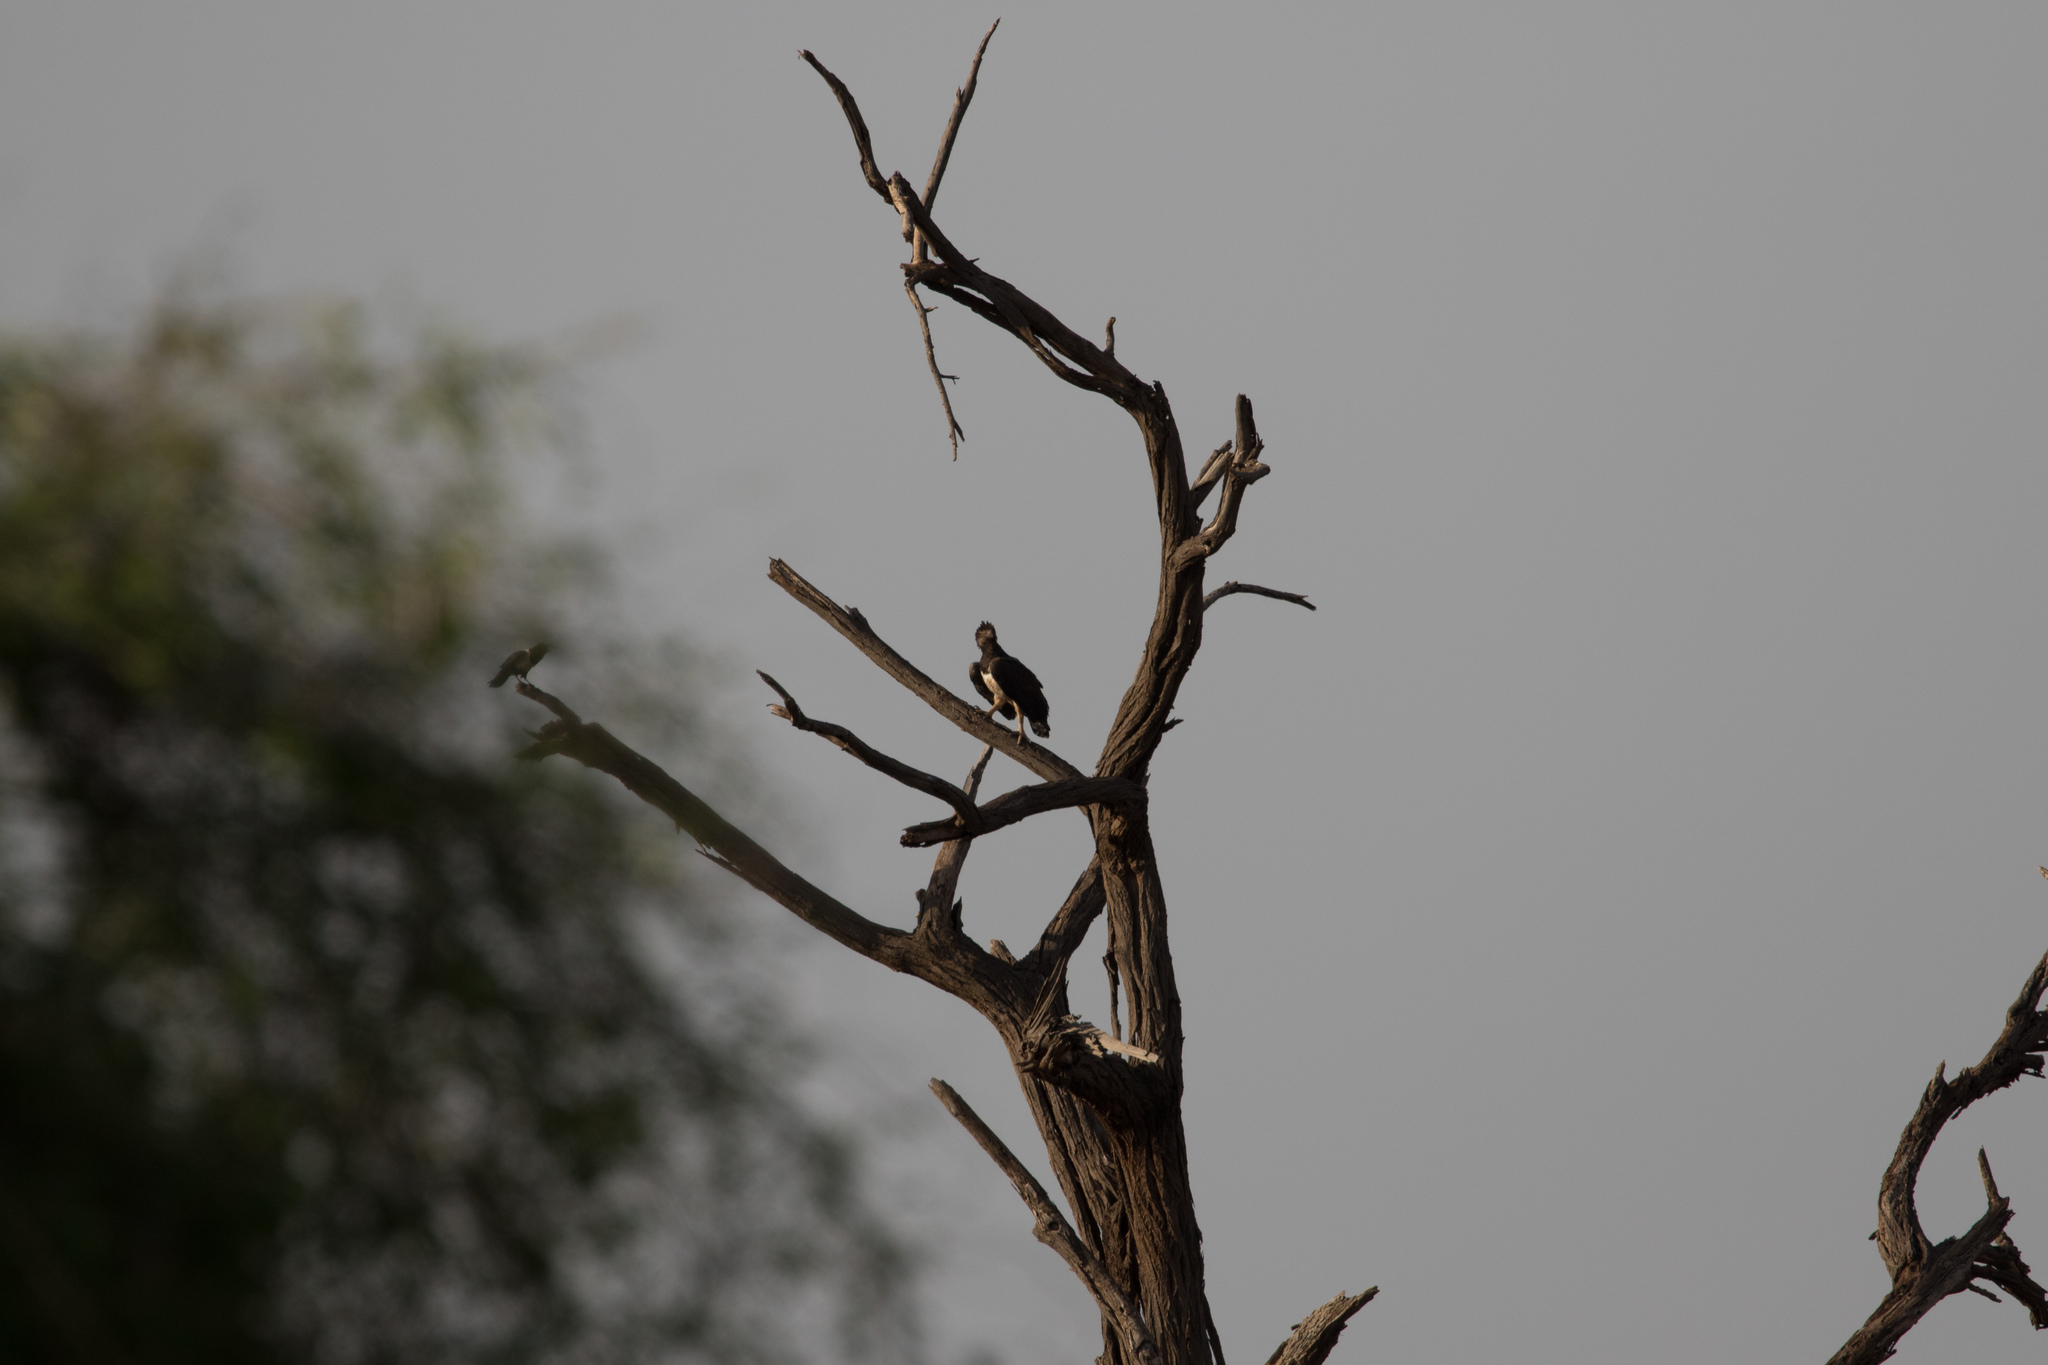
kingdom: Animalia
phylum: Chordata
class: Aves
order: Accipitriformes
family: Accipitridae
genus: Polemaetus
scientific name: Polemaetus bellicosus
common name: Martial eagle
